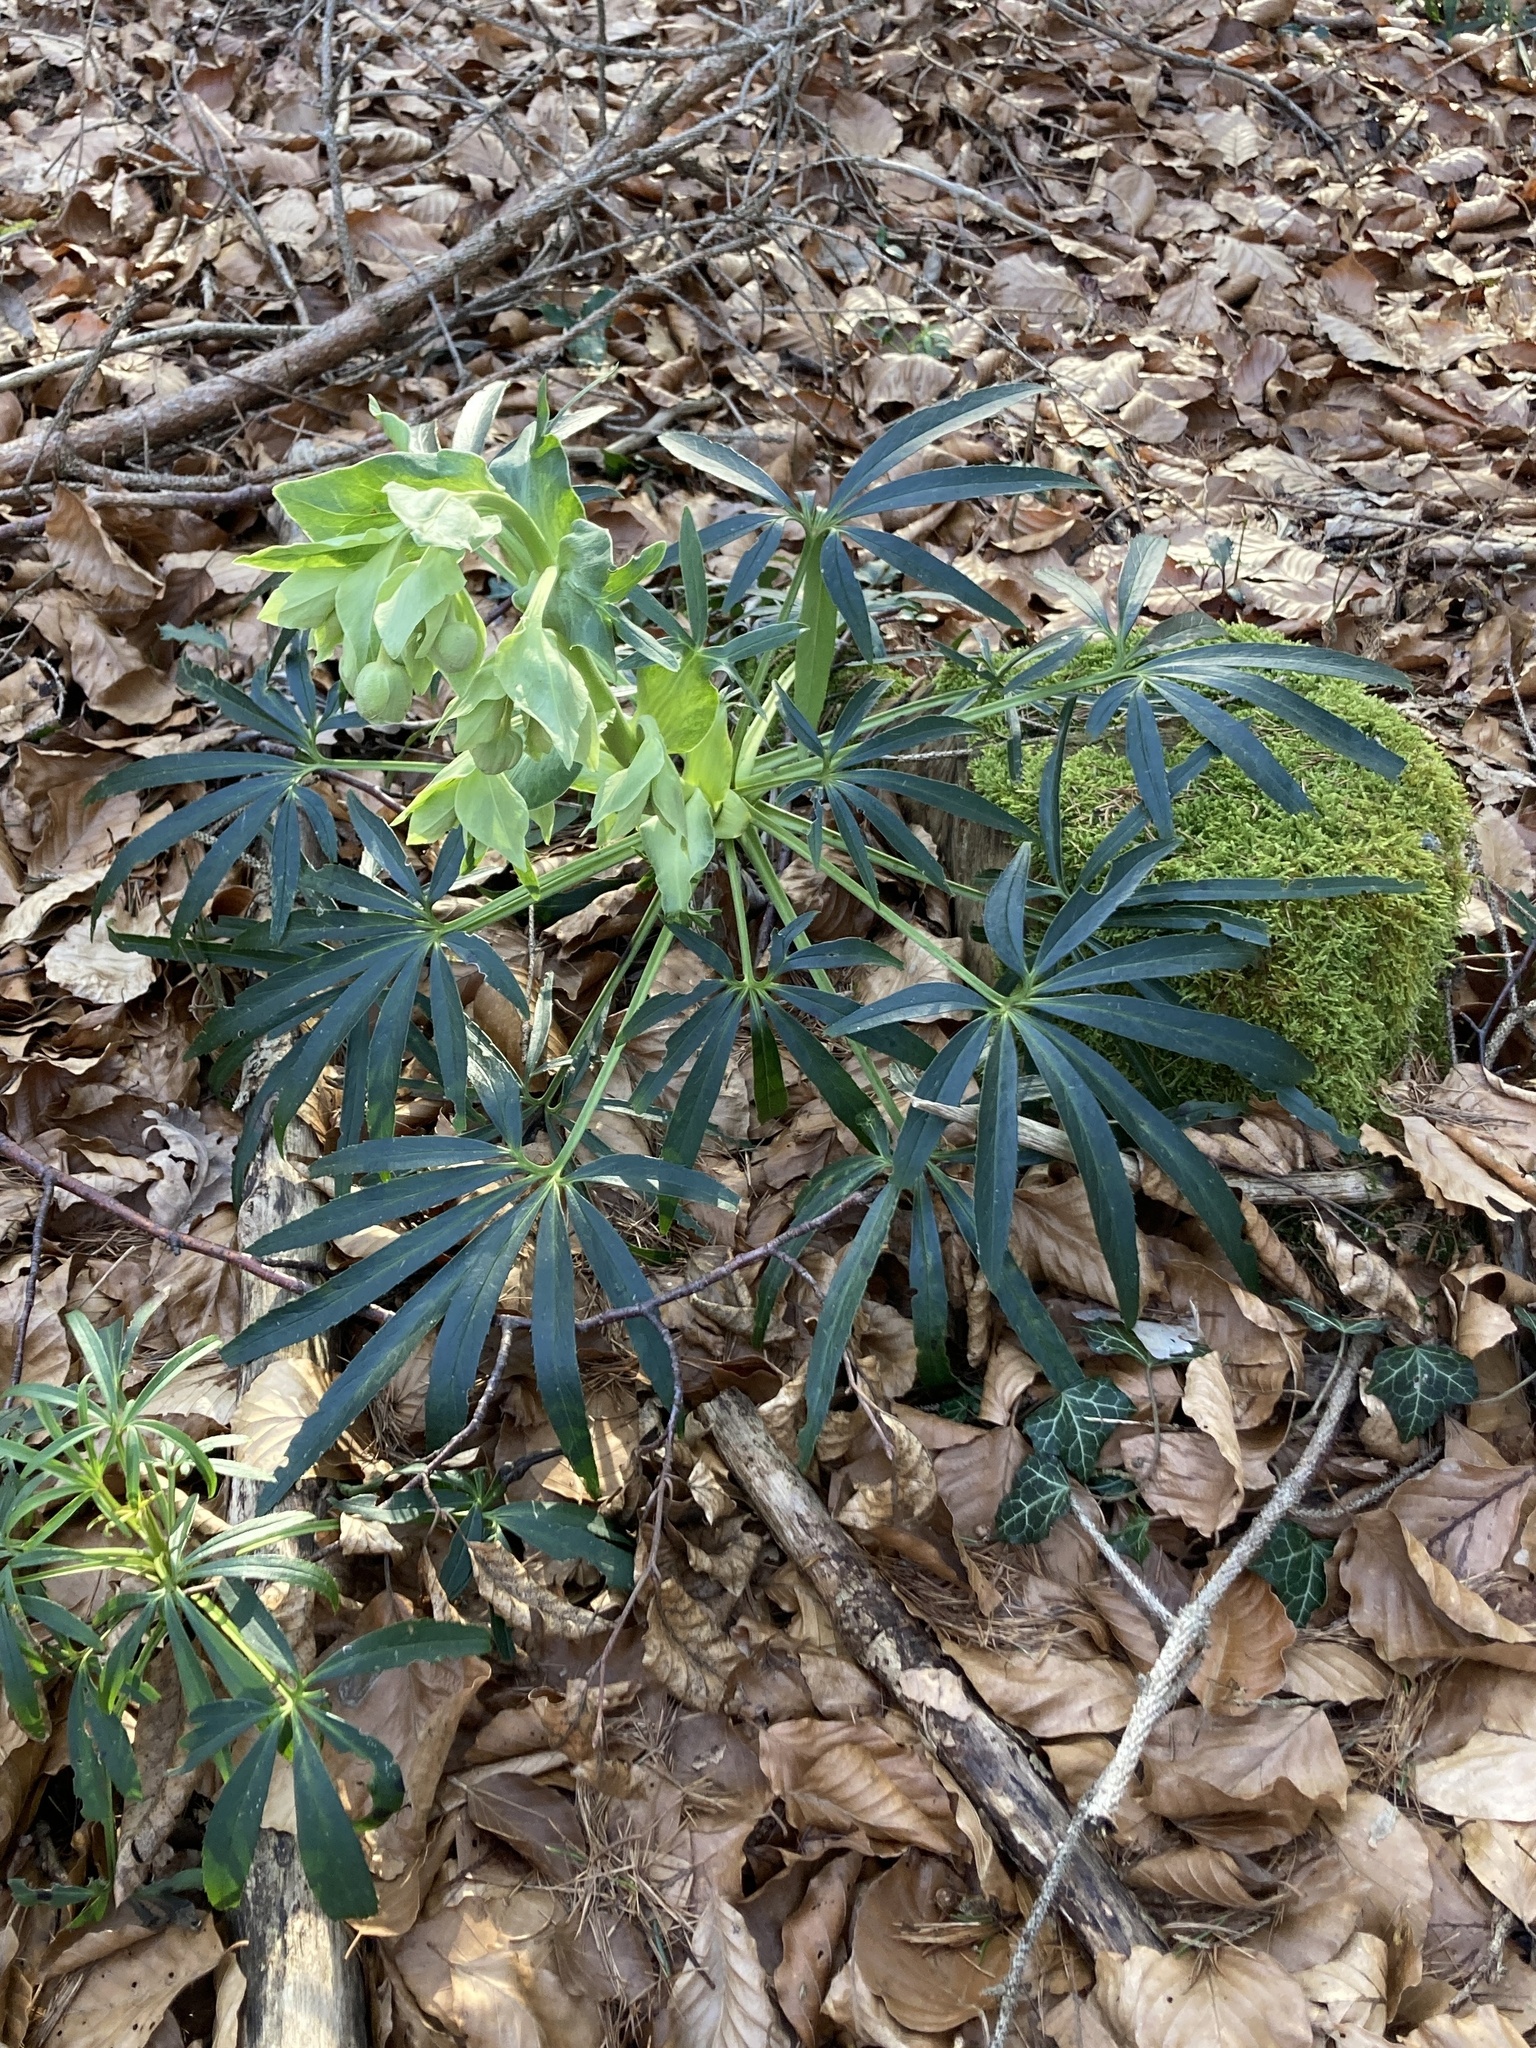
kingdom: Plantae
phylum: Tracheophyta
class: Magnoliopsida
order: Ranunculales
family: Ranunculaceae
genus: Helleborus
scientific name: Helleborus foetidus
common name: Stinking hellebore
